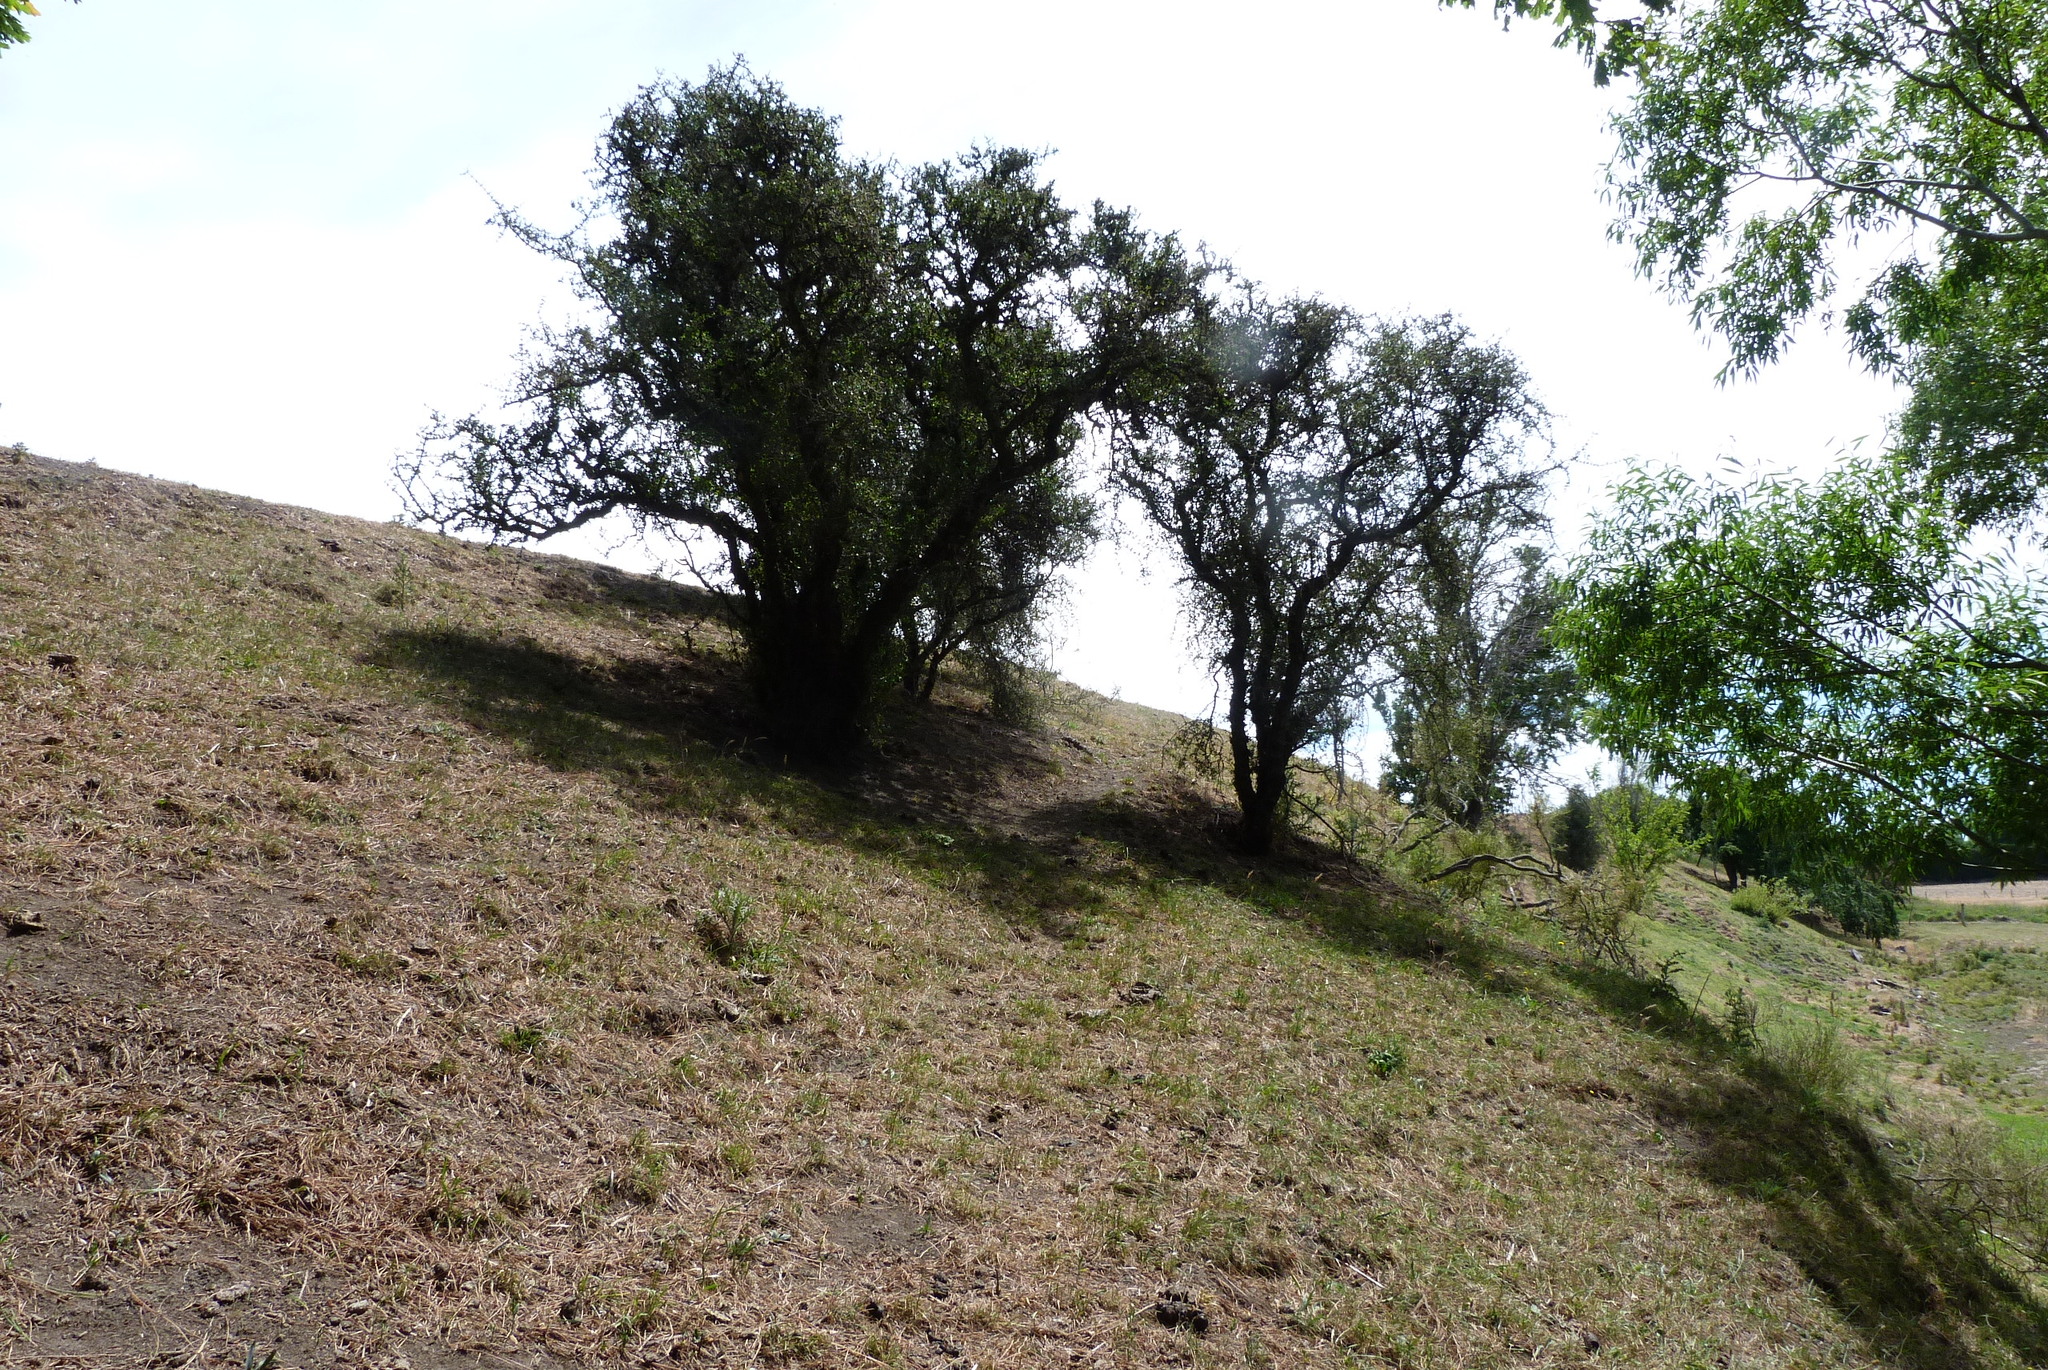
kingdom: Plantae
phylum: Tracheophyta
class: Magnoliopsida
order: Rosales
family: Rhamnaceae
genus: Discaria
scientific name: Discaria toumatou
